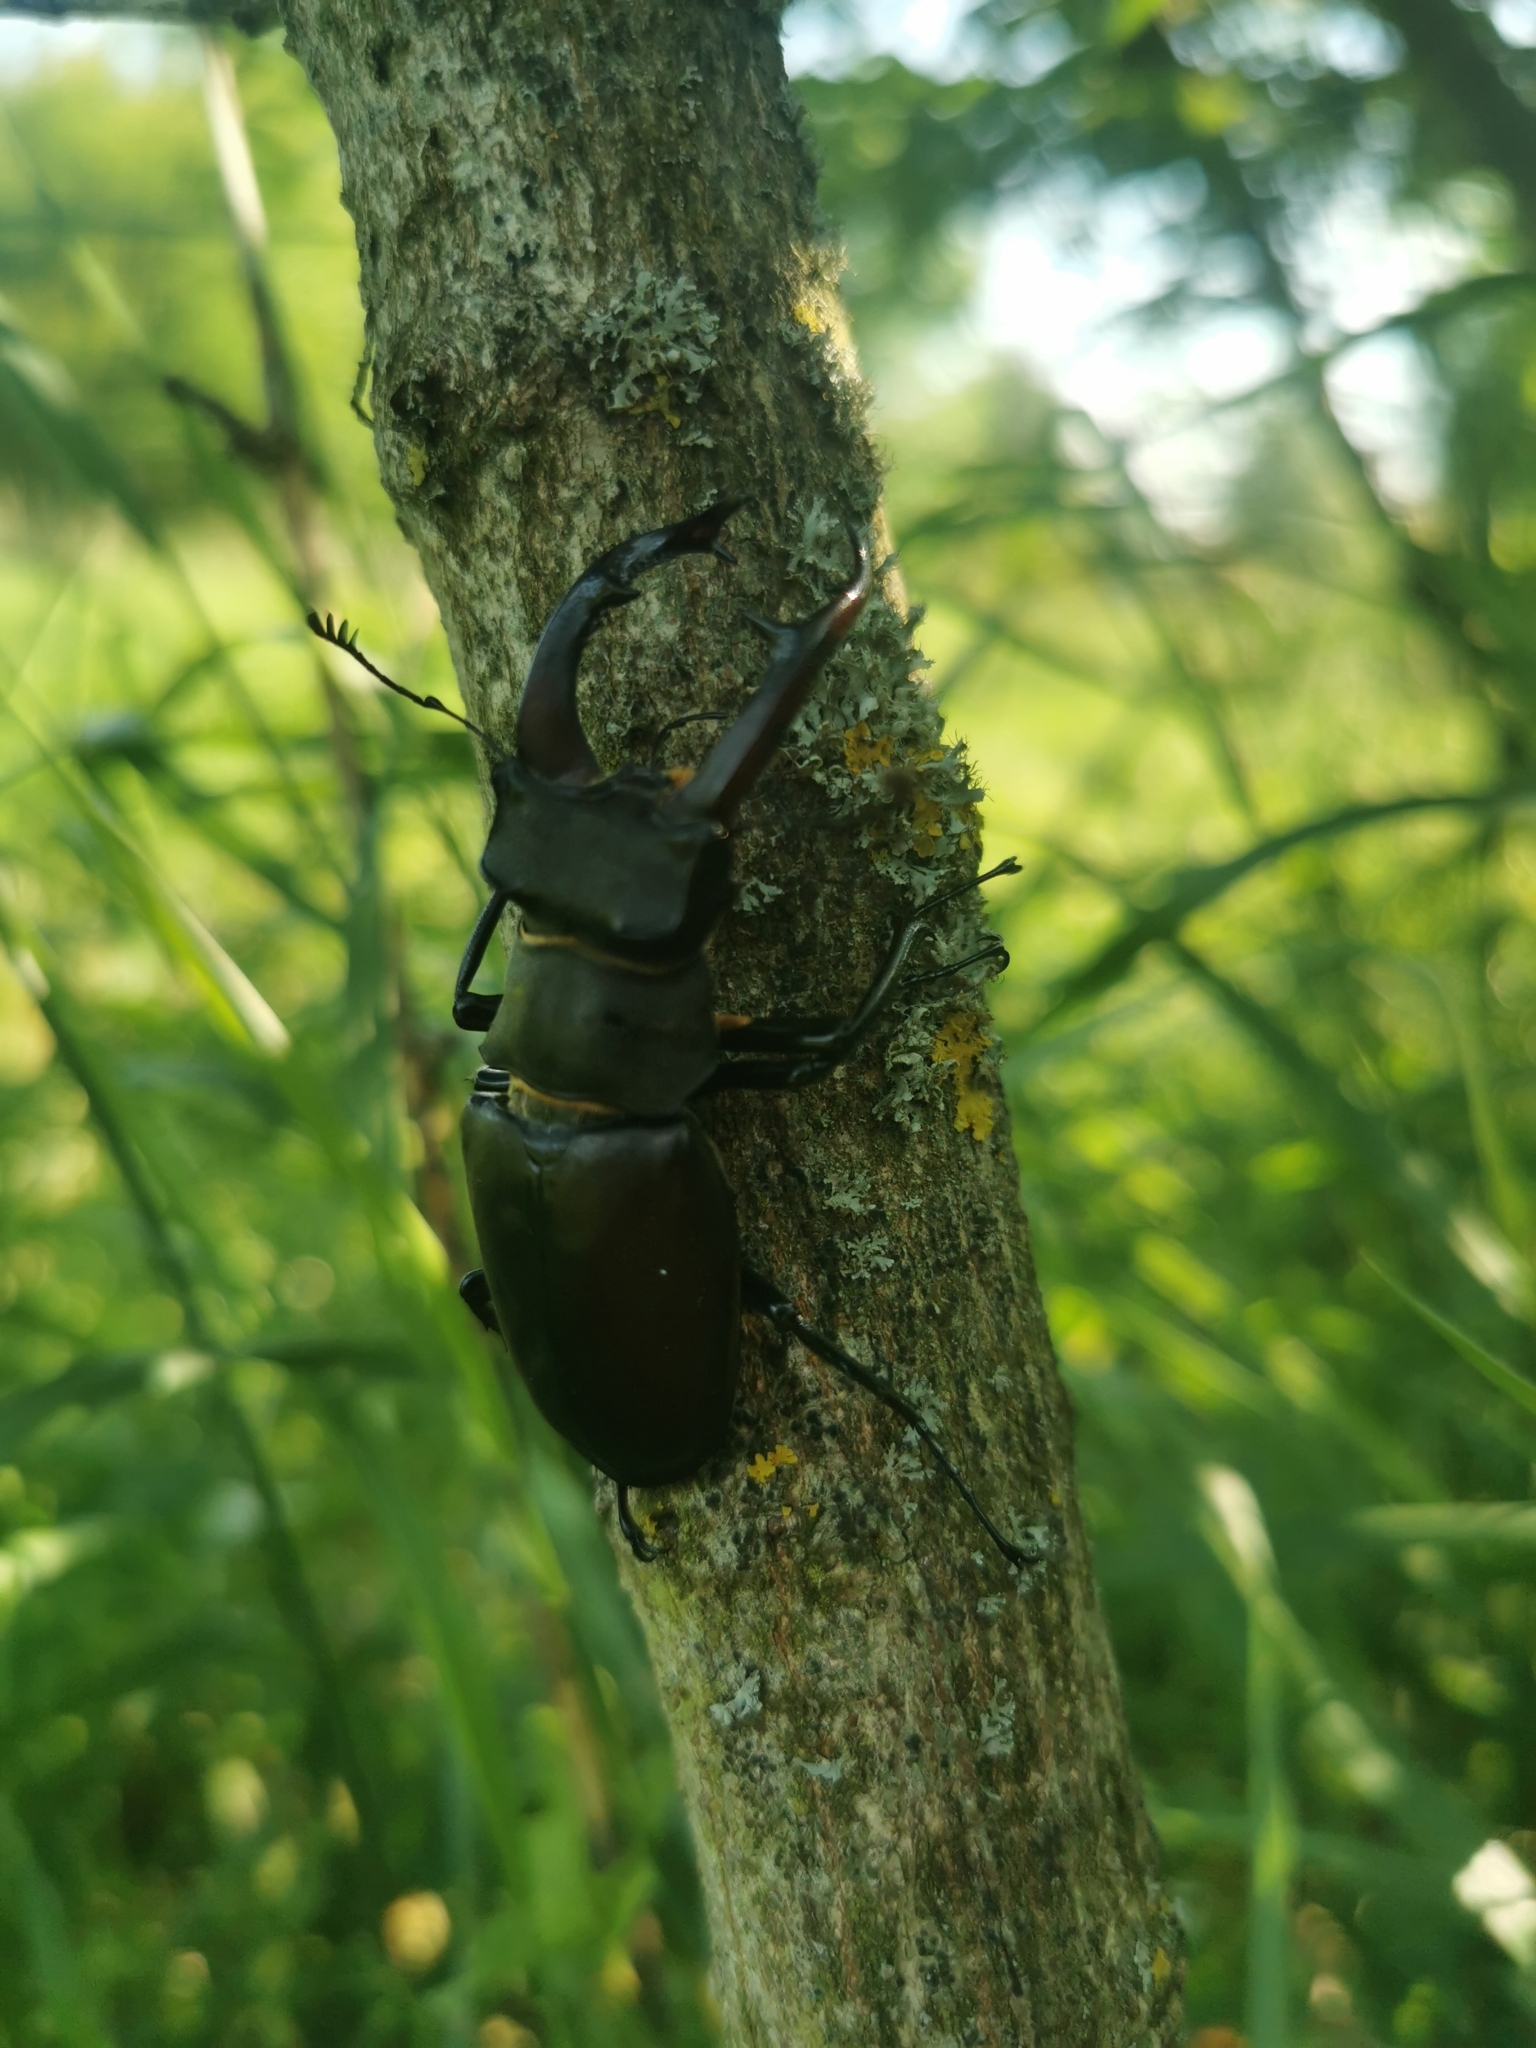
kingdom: Animalia
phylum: Arthropoda
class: Insecta
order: Coleoptera
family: Lucanidae
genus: Lucanus
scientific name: Lucanus cervus
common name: Stag beetle
